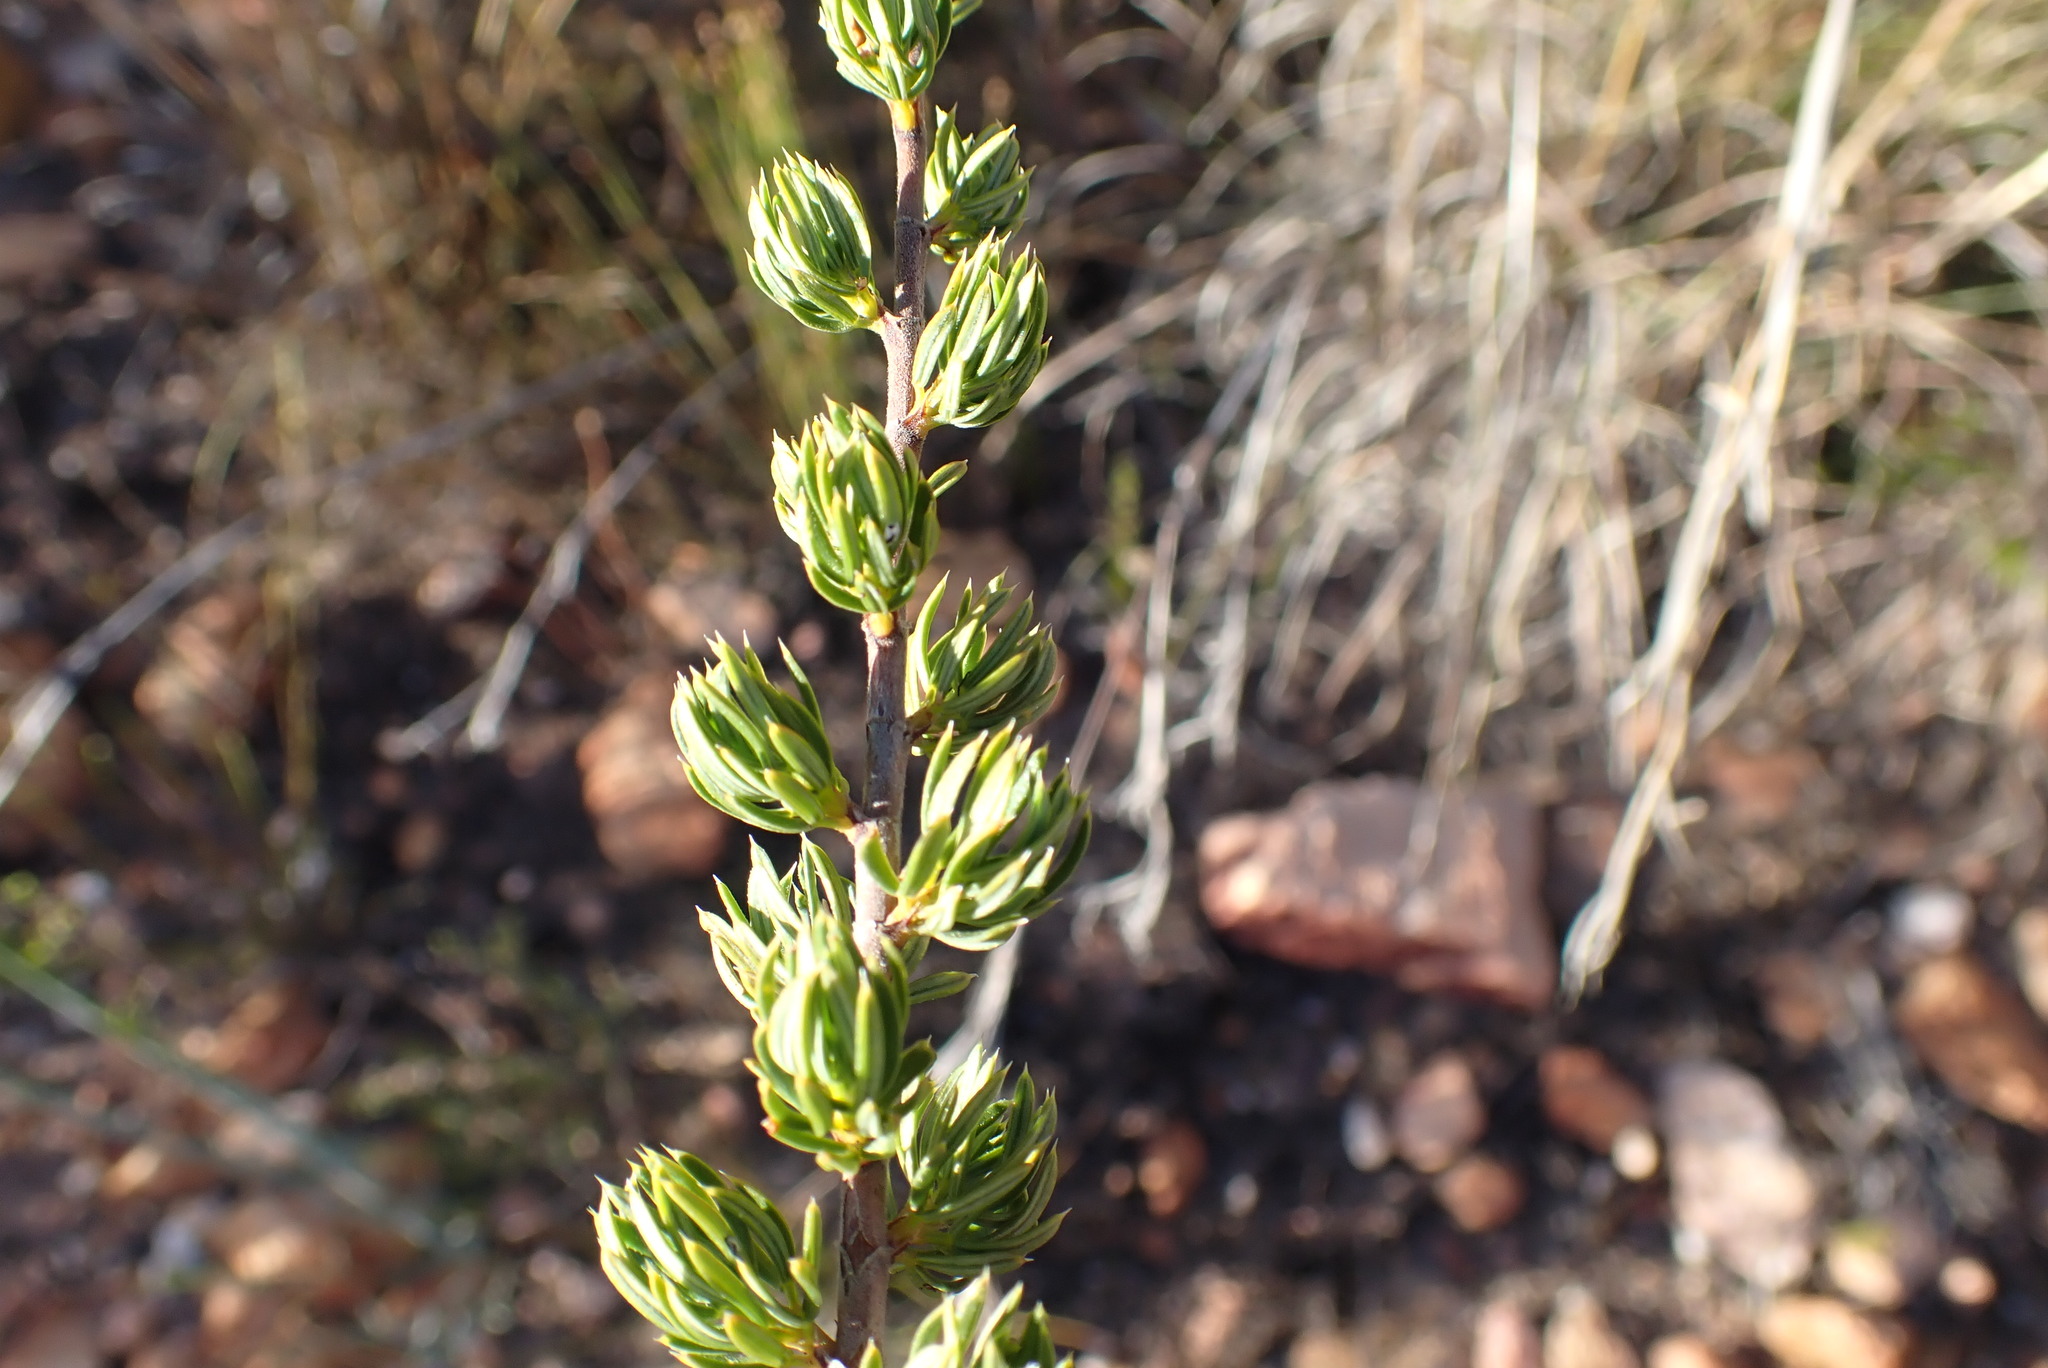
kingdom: Plantae
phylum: Tracheophyta
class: Magnoliopsida
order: Rosales
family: Rosaceae
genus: Cliffortia
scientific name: Cliffortia arcuata
